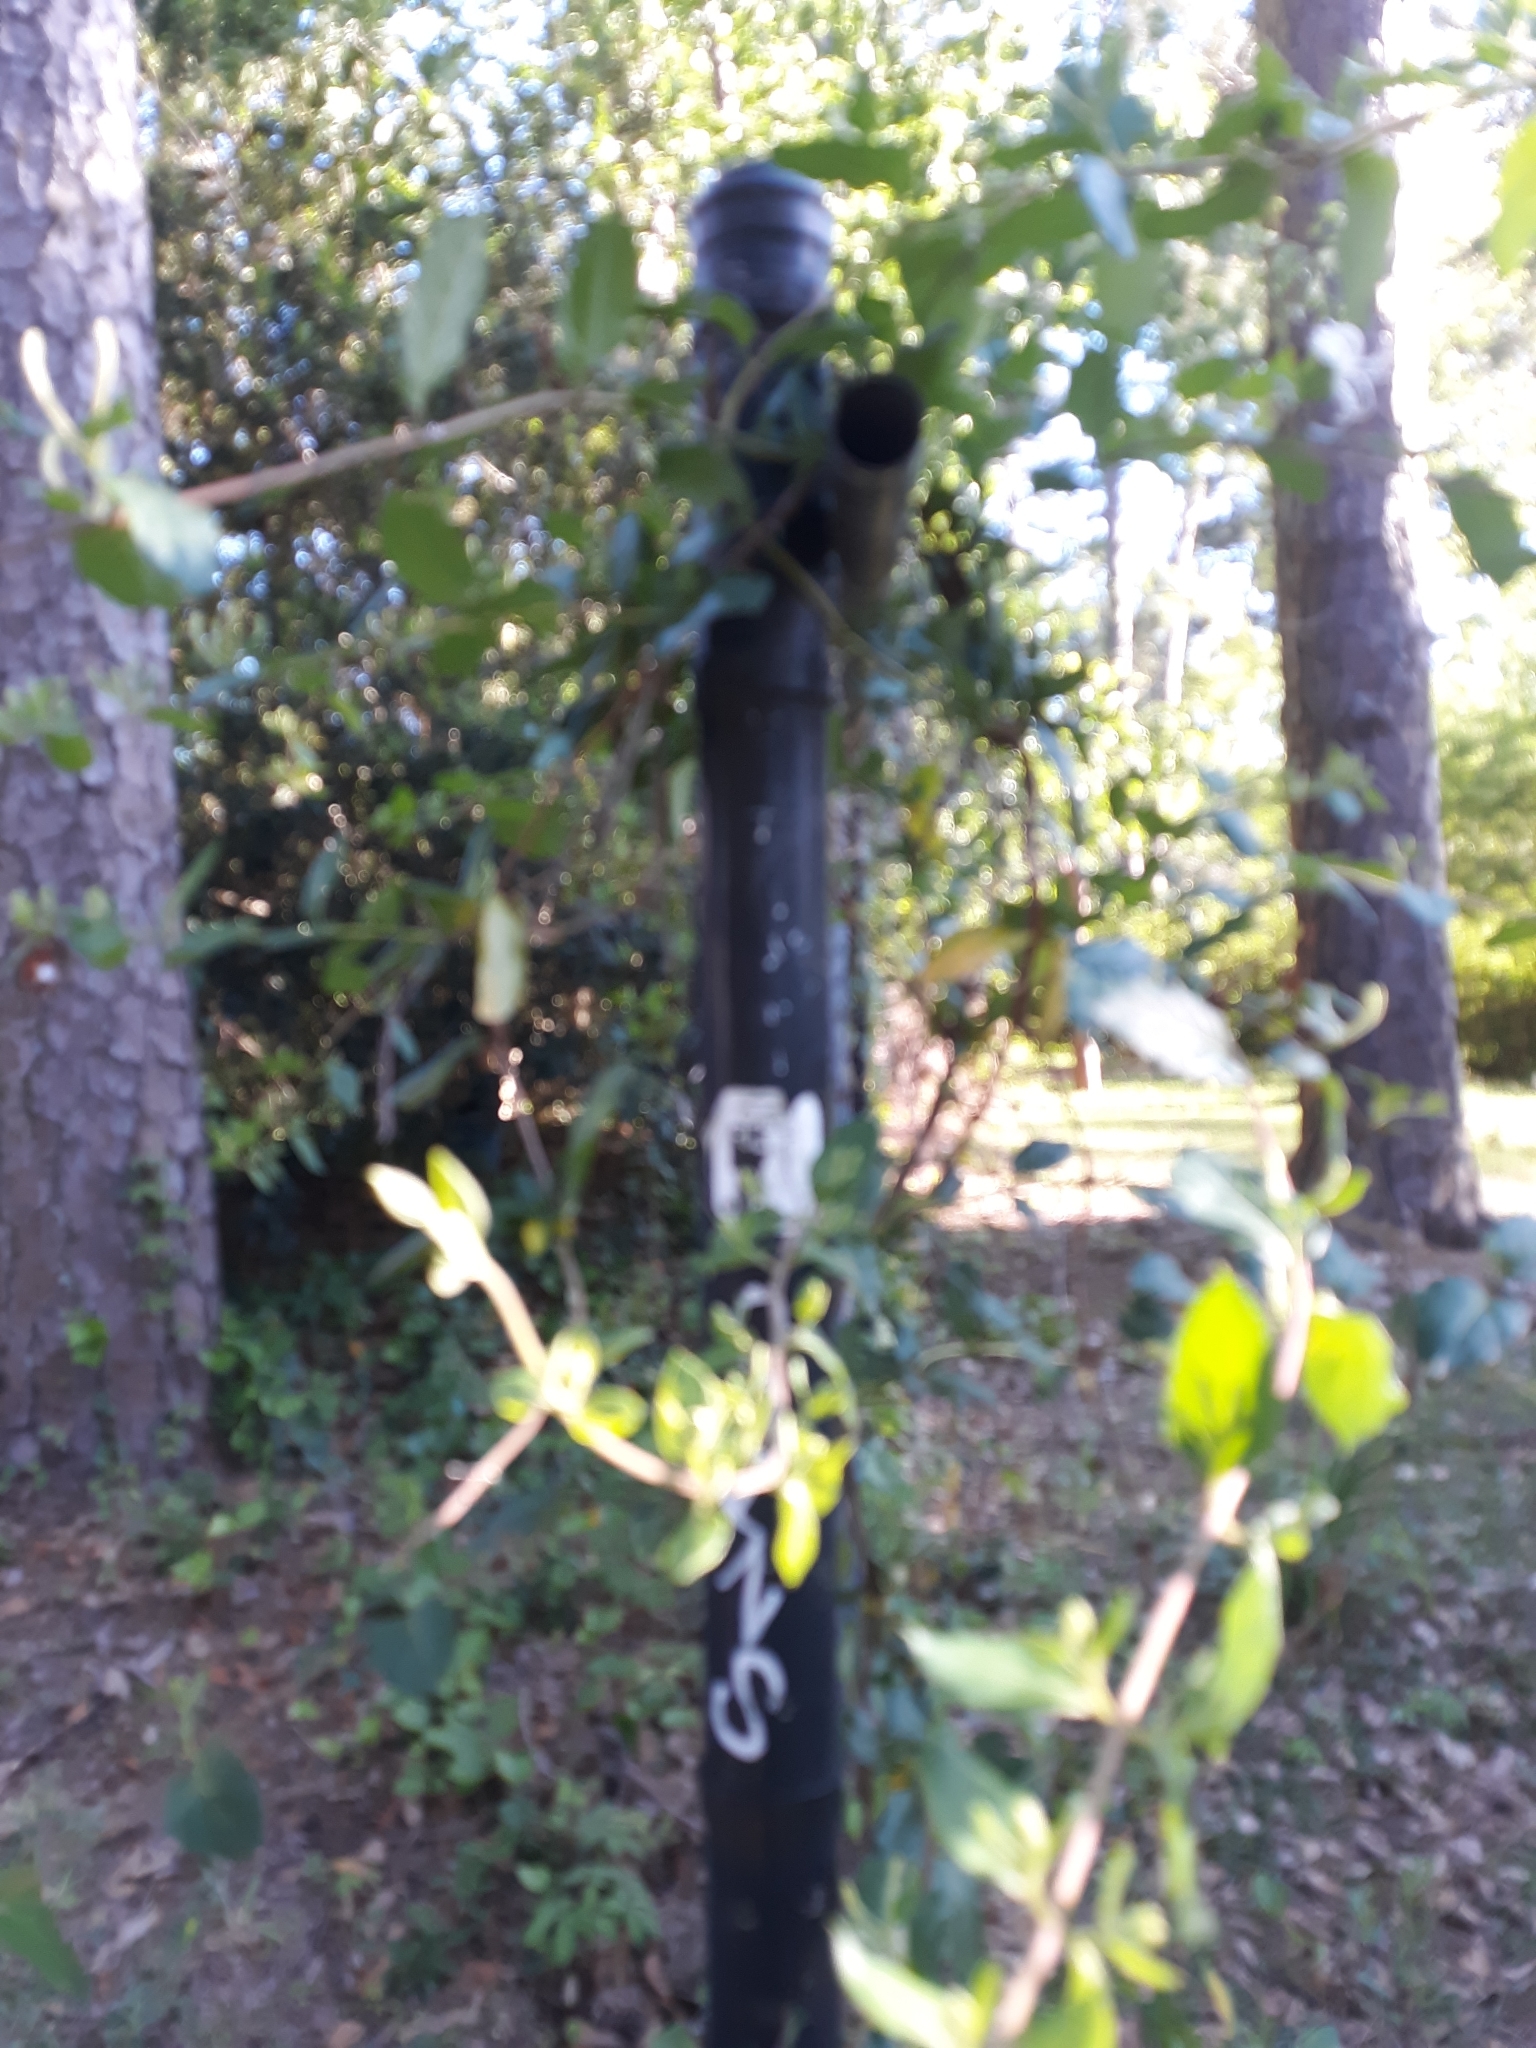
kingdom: Plantae
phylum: Tracheophyta
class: Magnoliopsida
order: Dipsacales
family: Caprifoliaceae
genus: Lonicera
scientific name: Lonicera japonica
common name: Japanese honeysuckle
